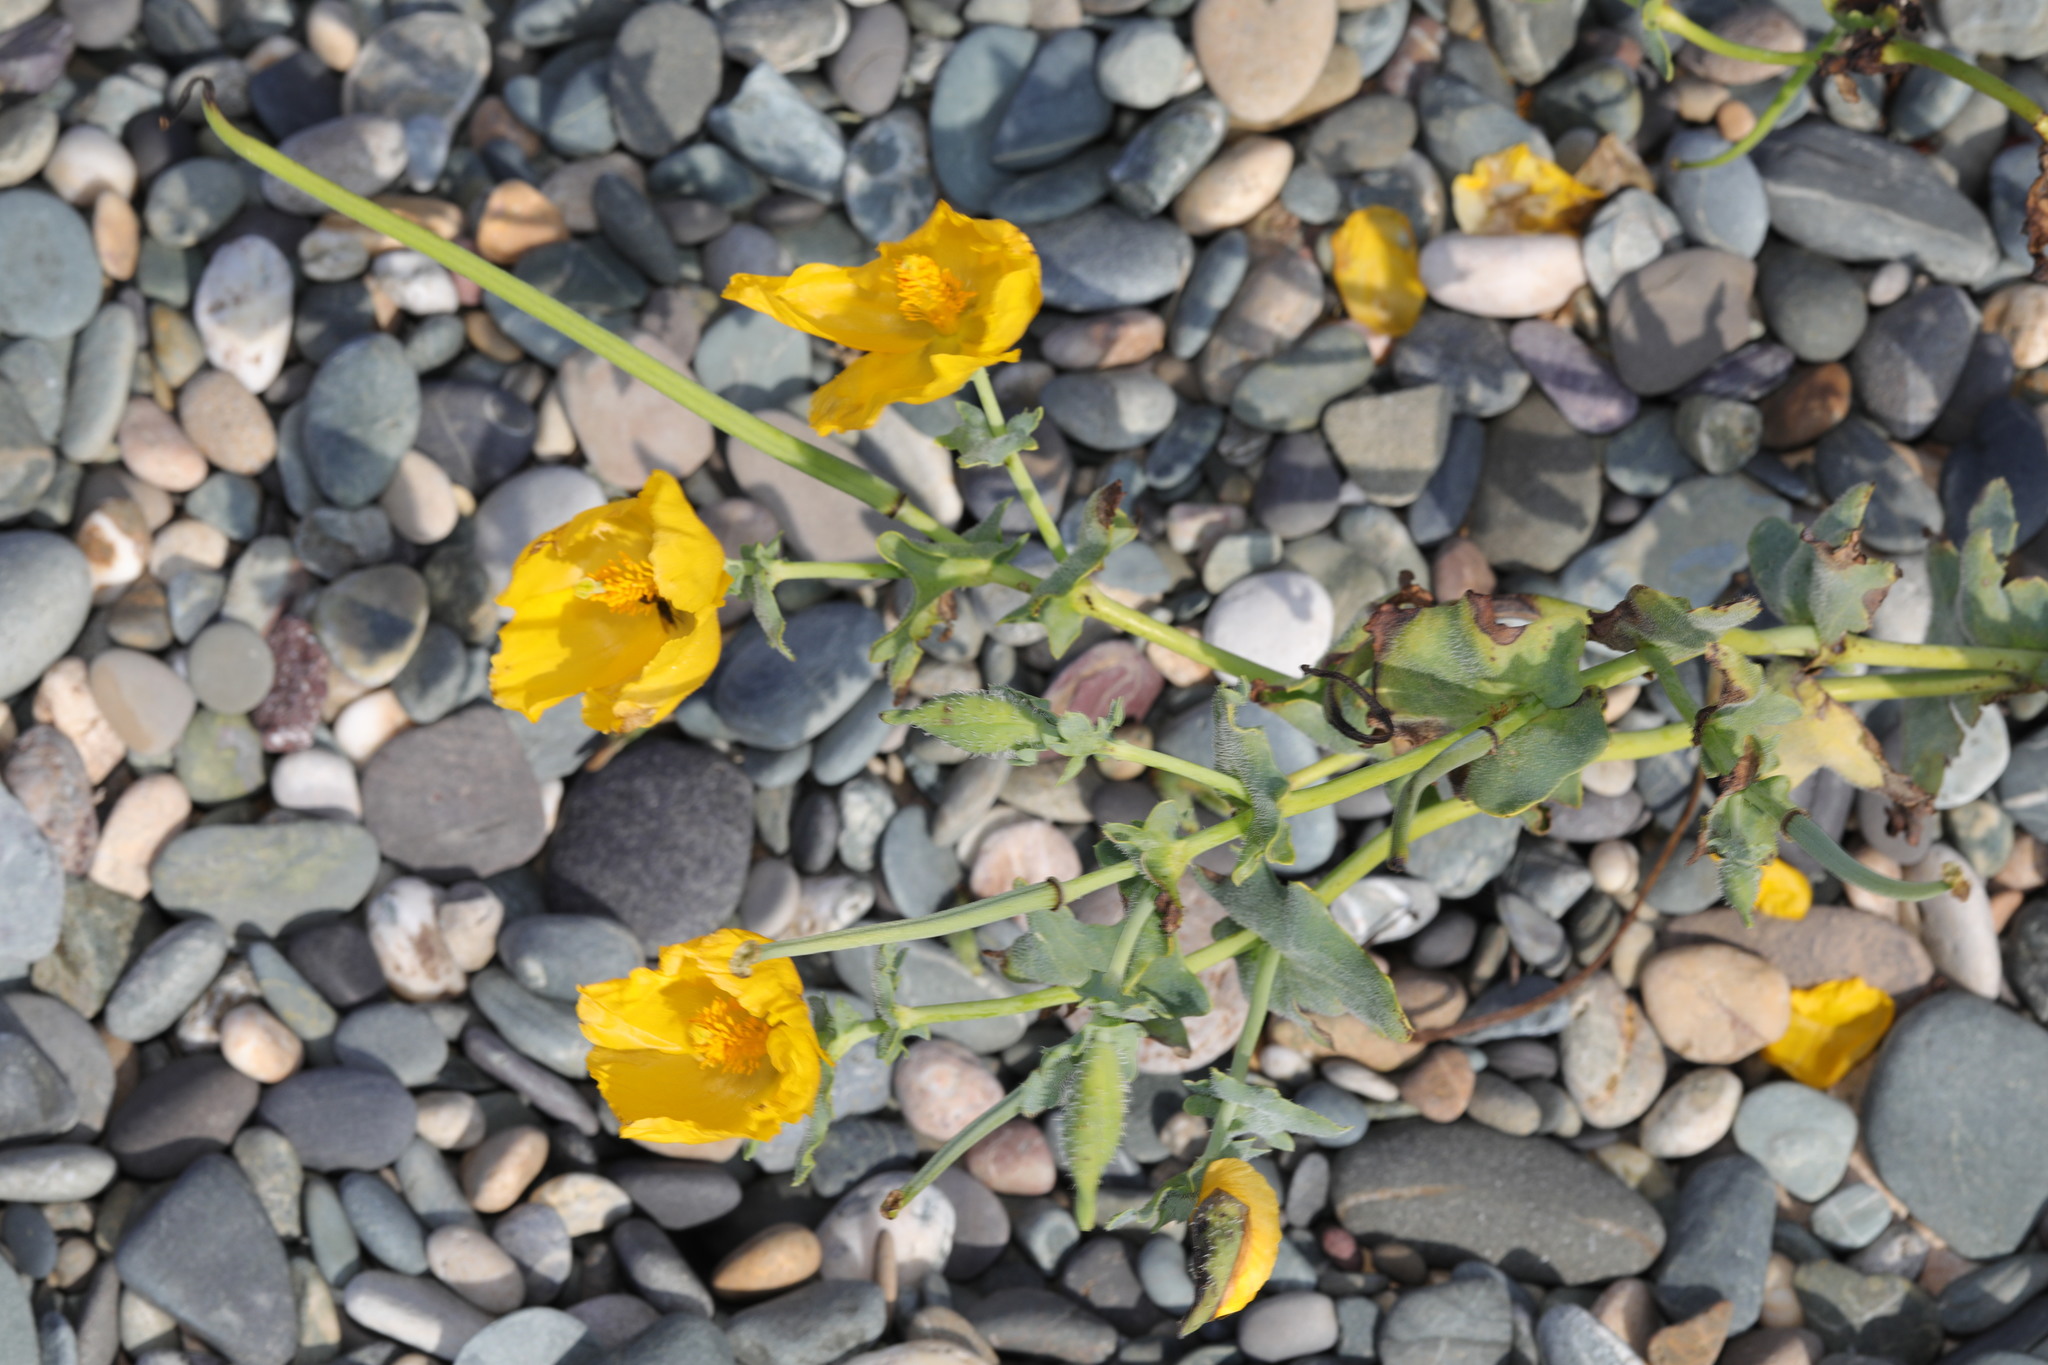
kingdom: Plantae
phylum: Tracheophyta
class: Magnoliopsida
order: Ranunculales
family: Papaveraceae
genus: Glaucium
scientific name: Glaucium flavum
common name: Yellow horned-poppy
